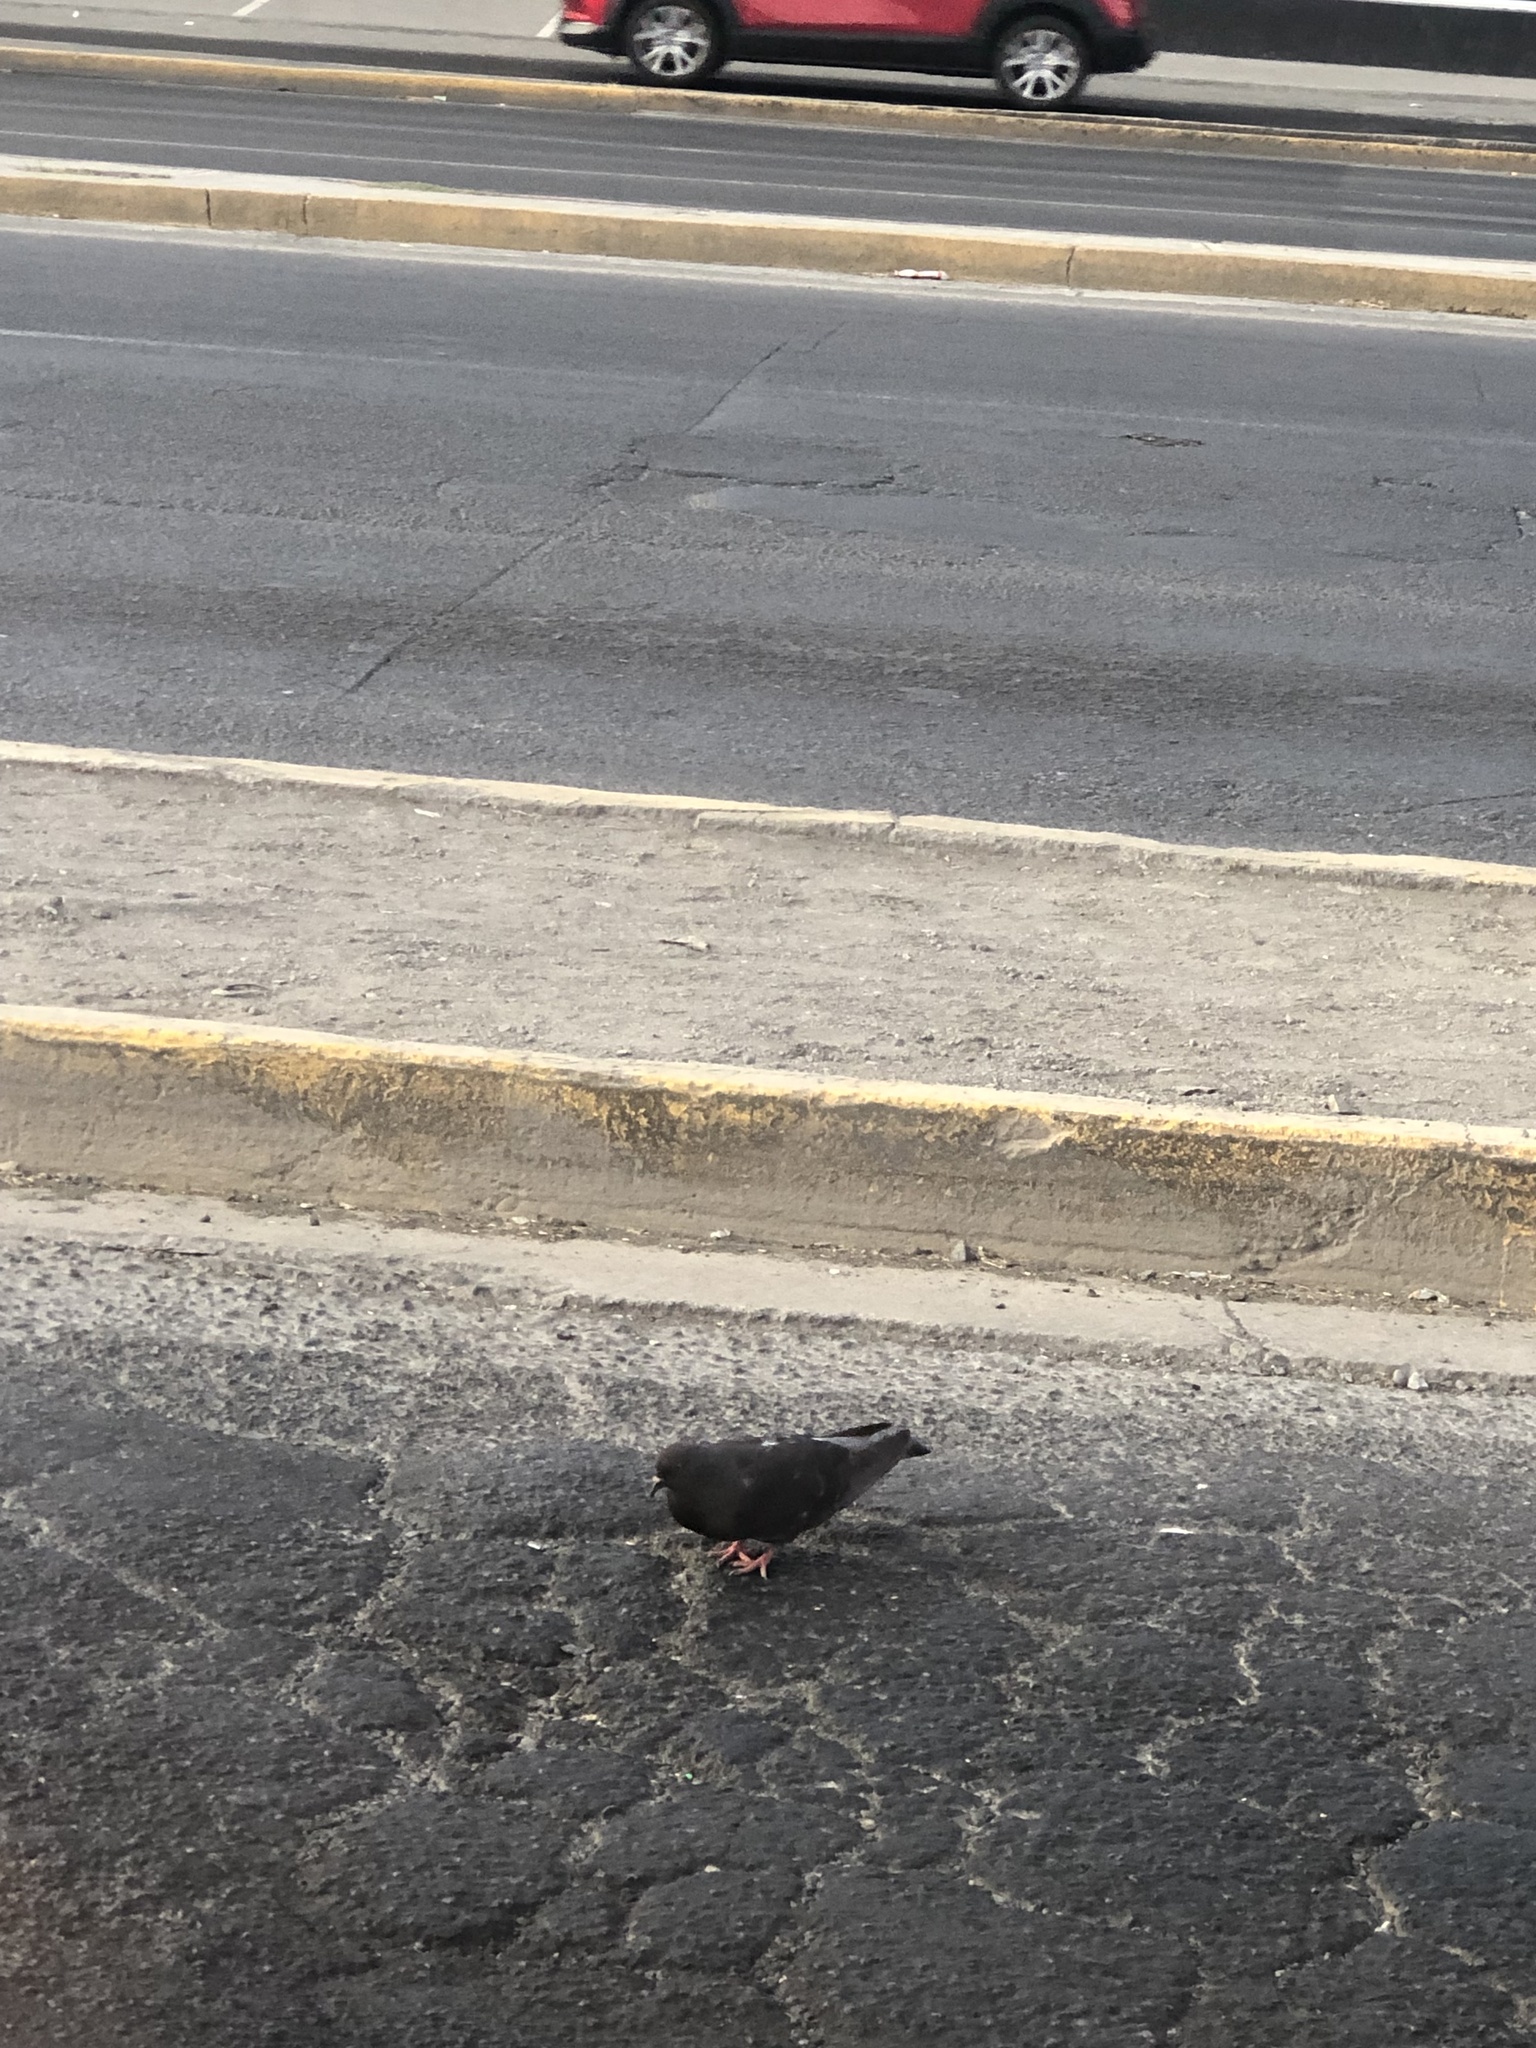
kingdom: Animalia
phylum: Chordata
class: Aves
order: Columbiformes
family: Columbidae
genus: Columba
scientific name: Columba livia
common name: Rock pigeon
